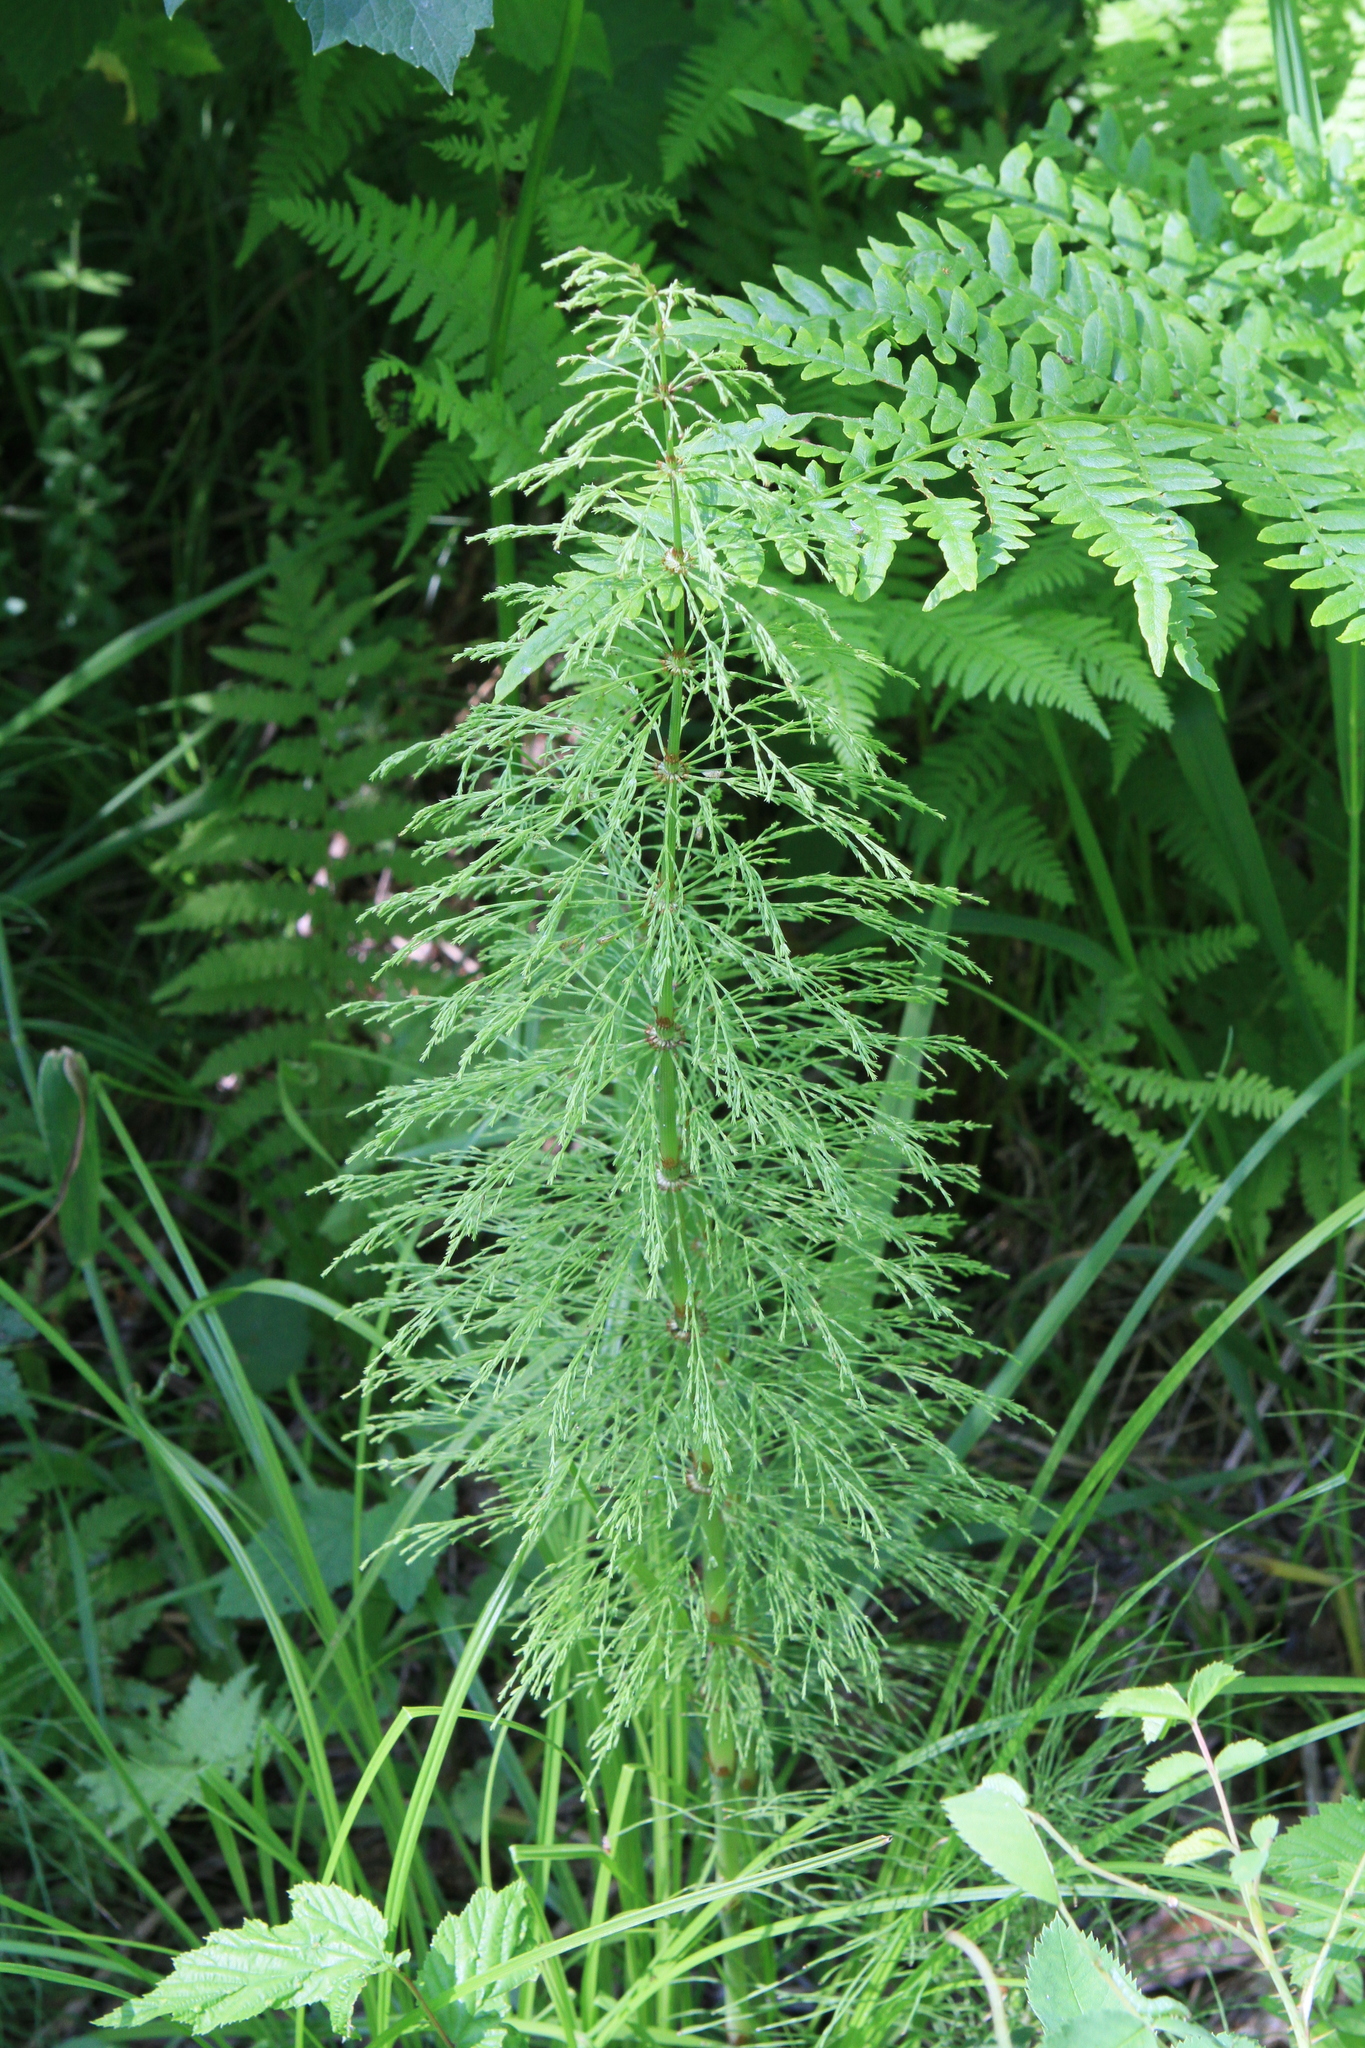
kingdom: Plantae
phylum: Tracheophyta
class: Polypodiopsida
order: Equisetales
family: Equisetaceae
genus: Equisetum
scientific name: Equisetum sylvaticum
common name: Wood horsetail
